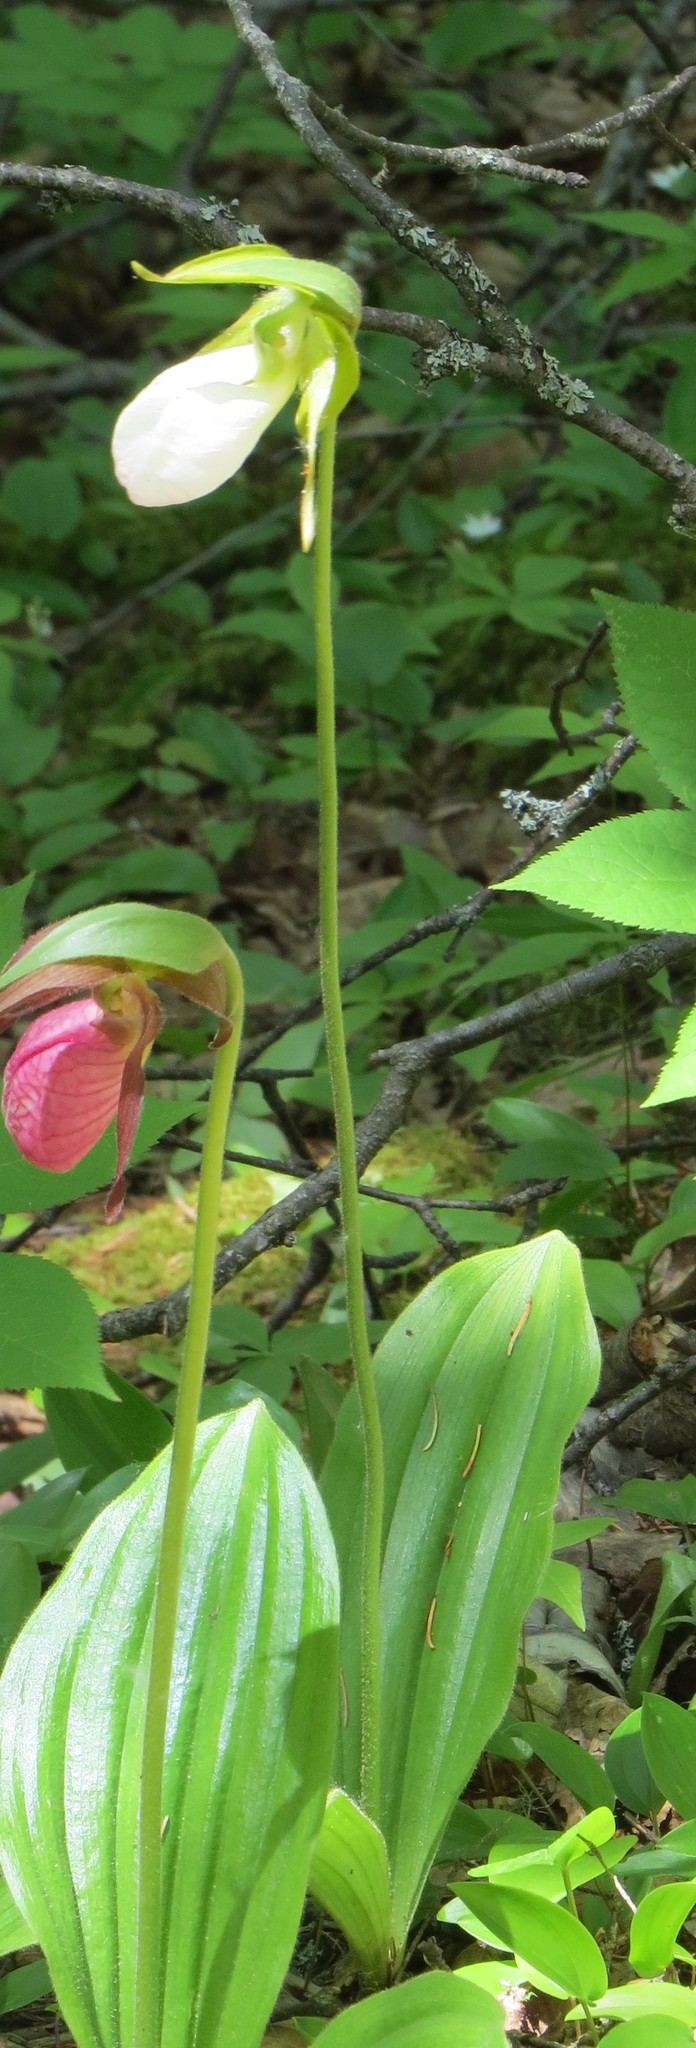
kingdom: Plantae
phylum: Tracheophyta
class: Liliopsida
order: Asparagales
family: Orchidaceae
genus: Cypripedium
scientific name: Cypripedium acaule
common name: Pink lady's-slipper
